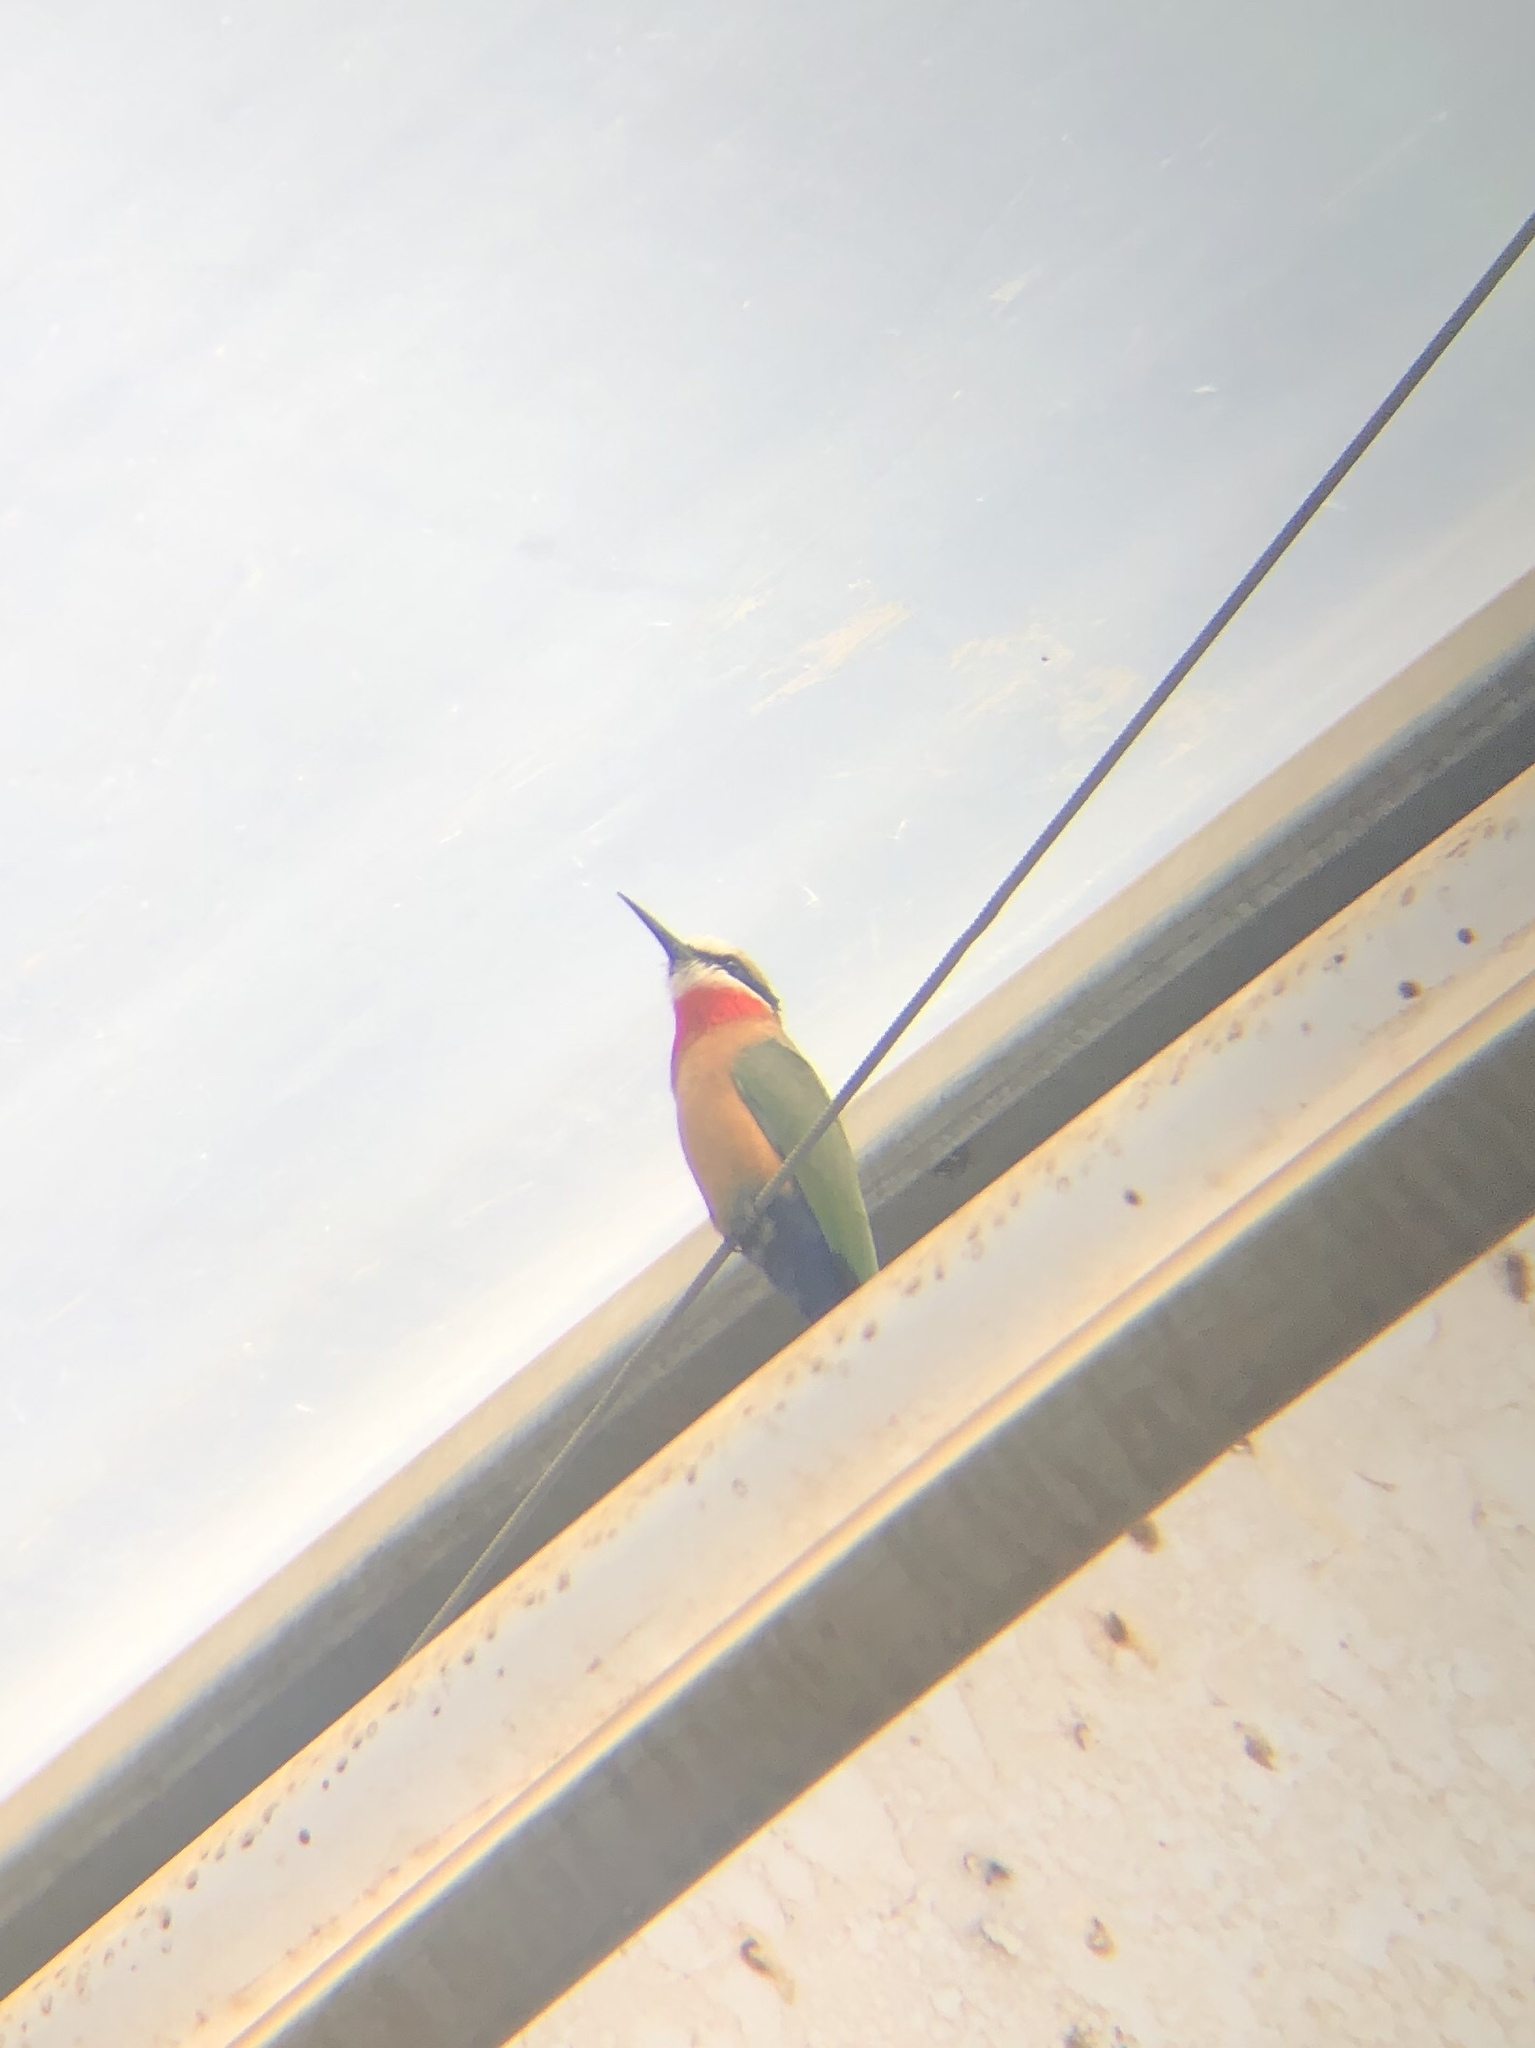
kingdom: Animalia
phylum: Chordata
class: Aves
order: Coraciiformes
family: Meropidae
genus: Merops
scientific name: Merops bullockoides
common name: White-fronted bee-eater
